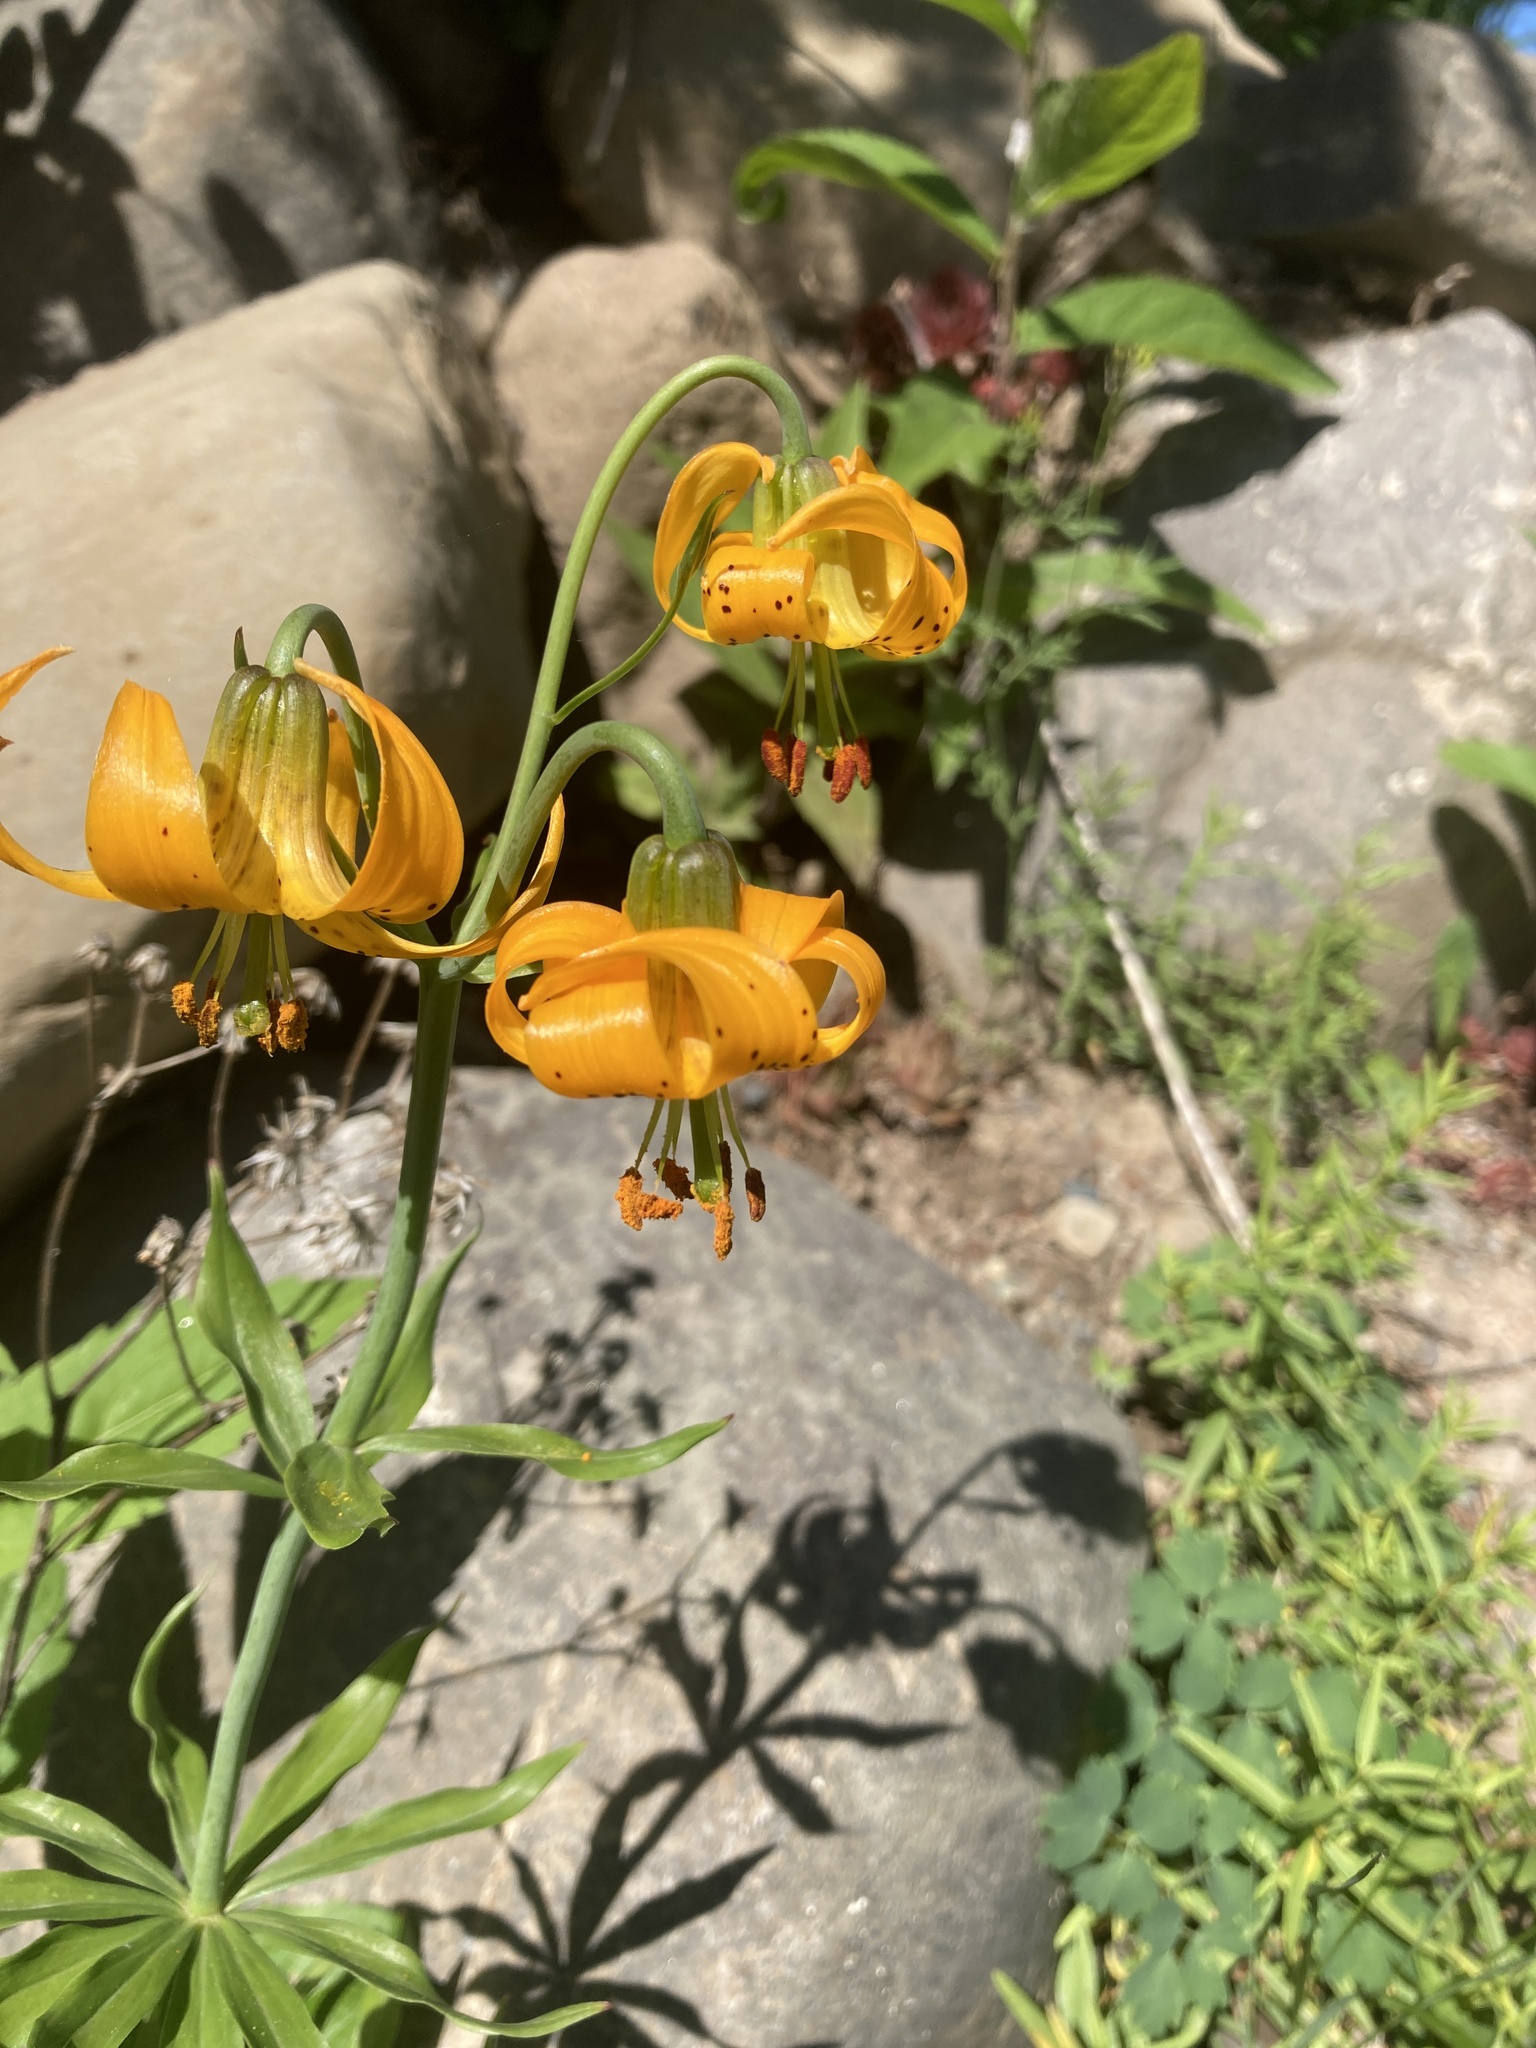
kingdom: Plantae
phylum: Tracheophyta
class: Liliopsida
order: Liliales
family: Liliaceae
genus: Lilium
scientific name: Lilium columbianum
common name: Columbia lily
